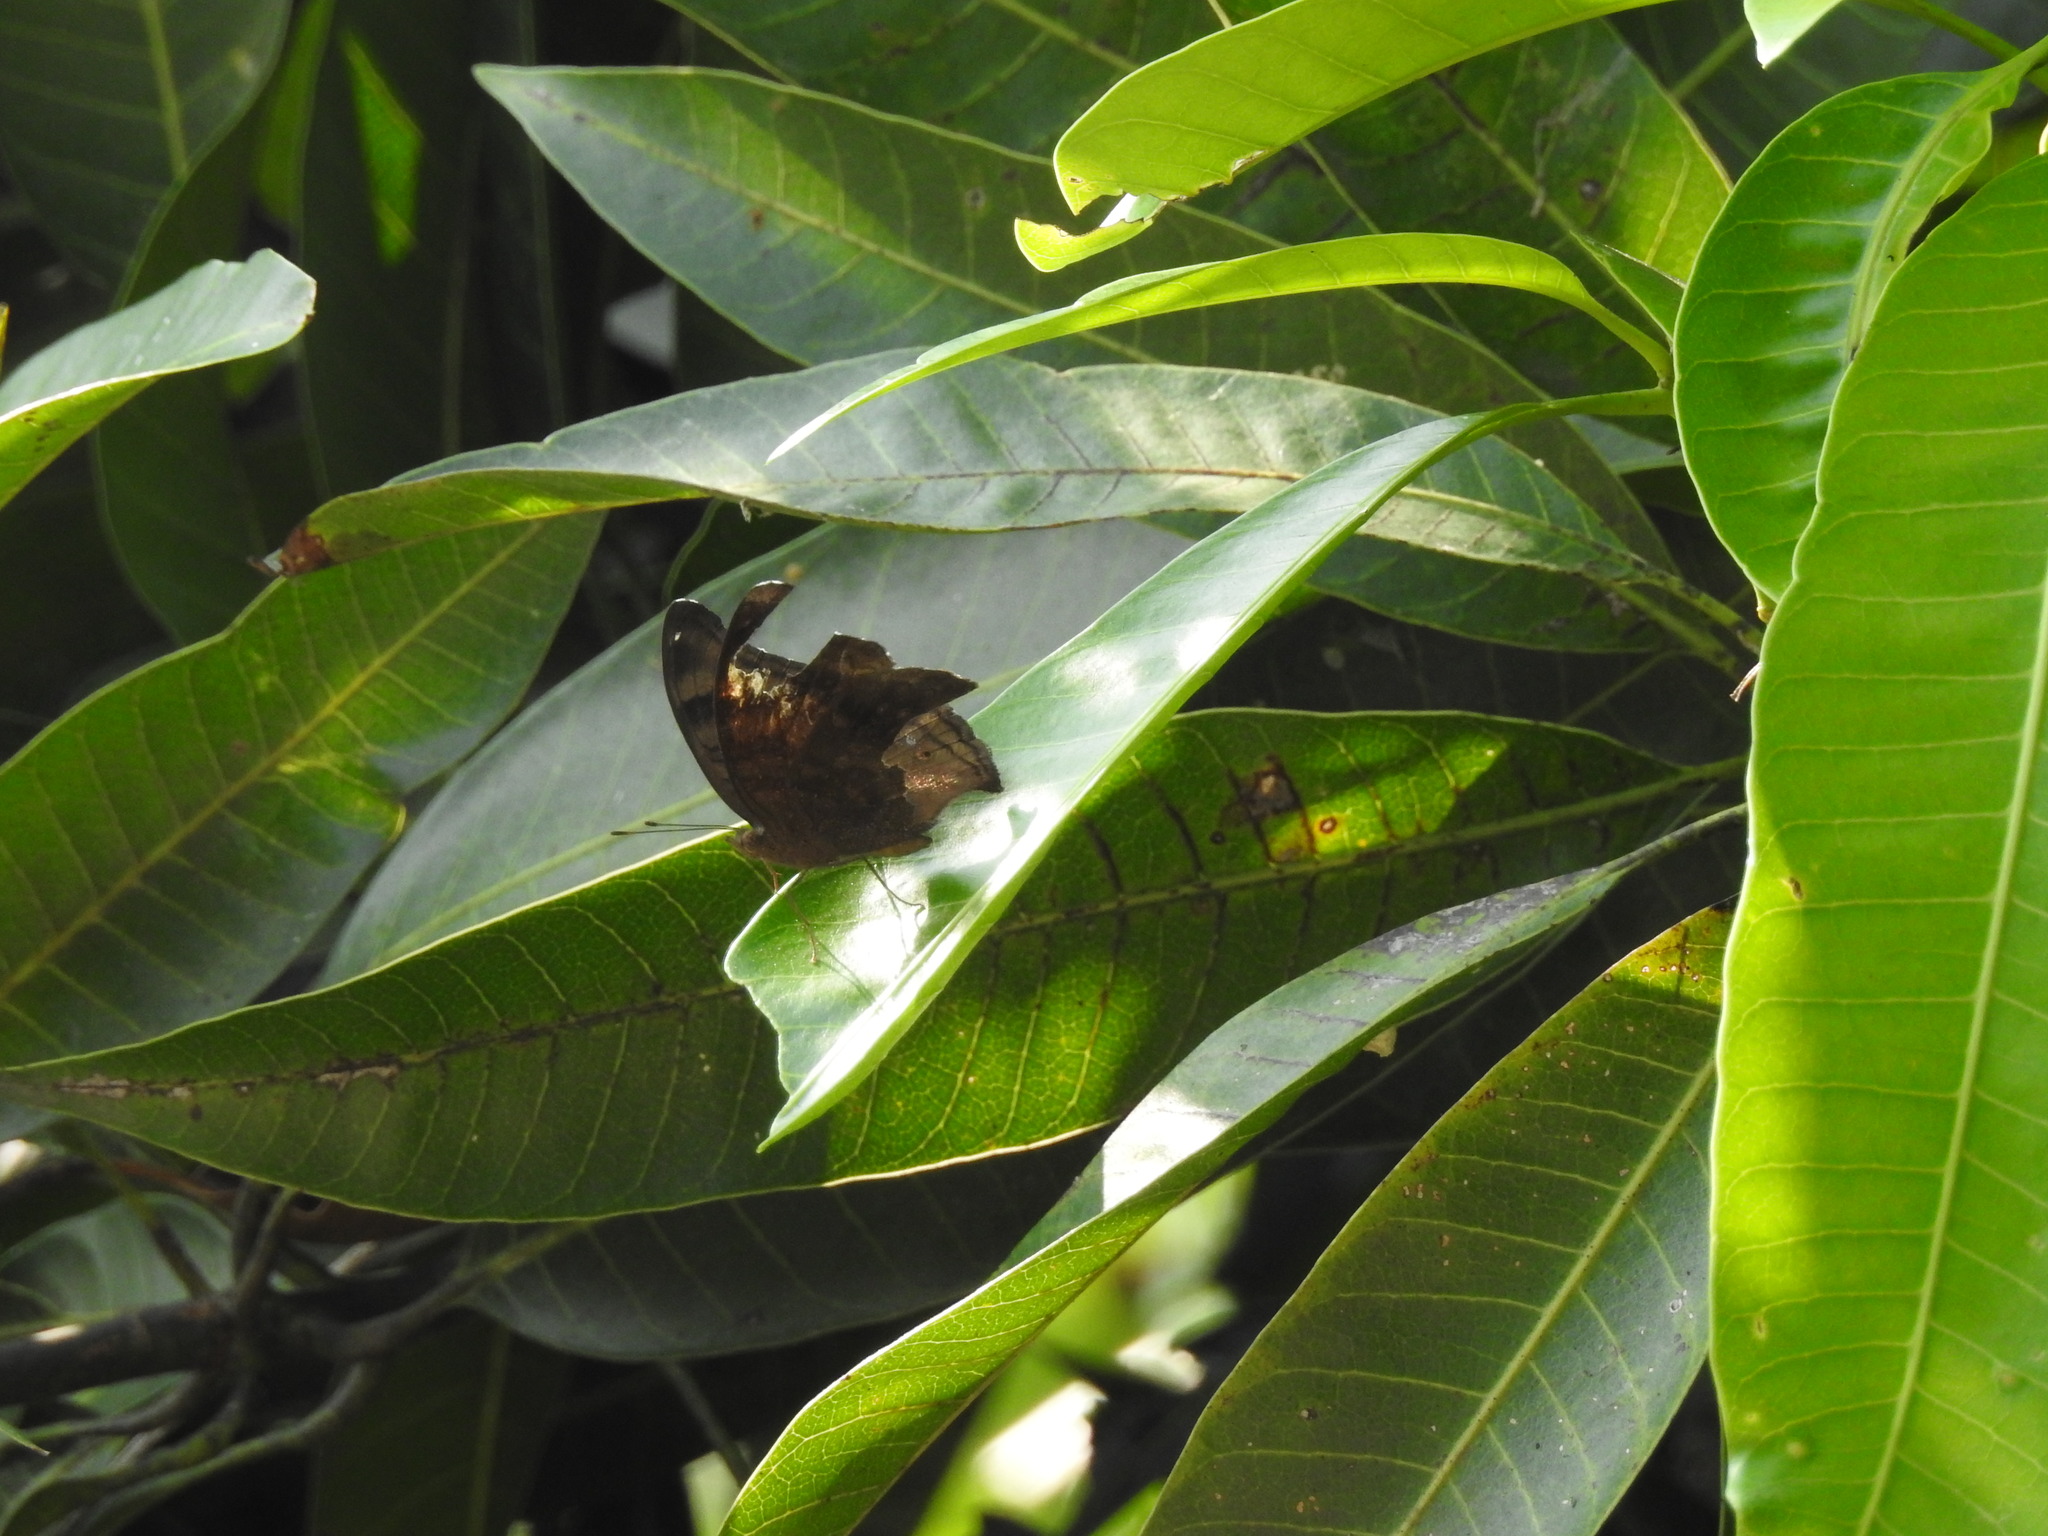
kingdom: Animalia
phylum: Arthropoda
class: Insecta
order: Lepidoptera
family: Nymphalidae
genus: Junonia
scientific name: Junonia iphita
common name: Chocolate pansy
